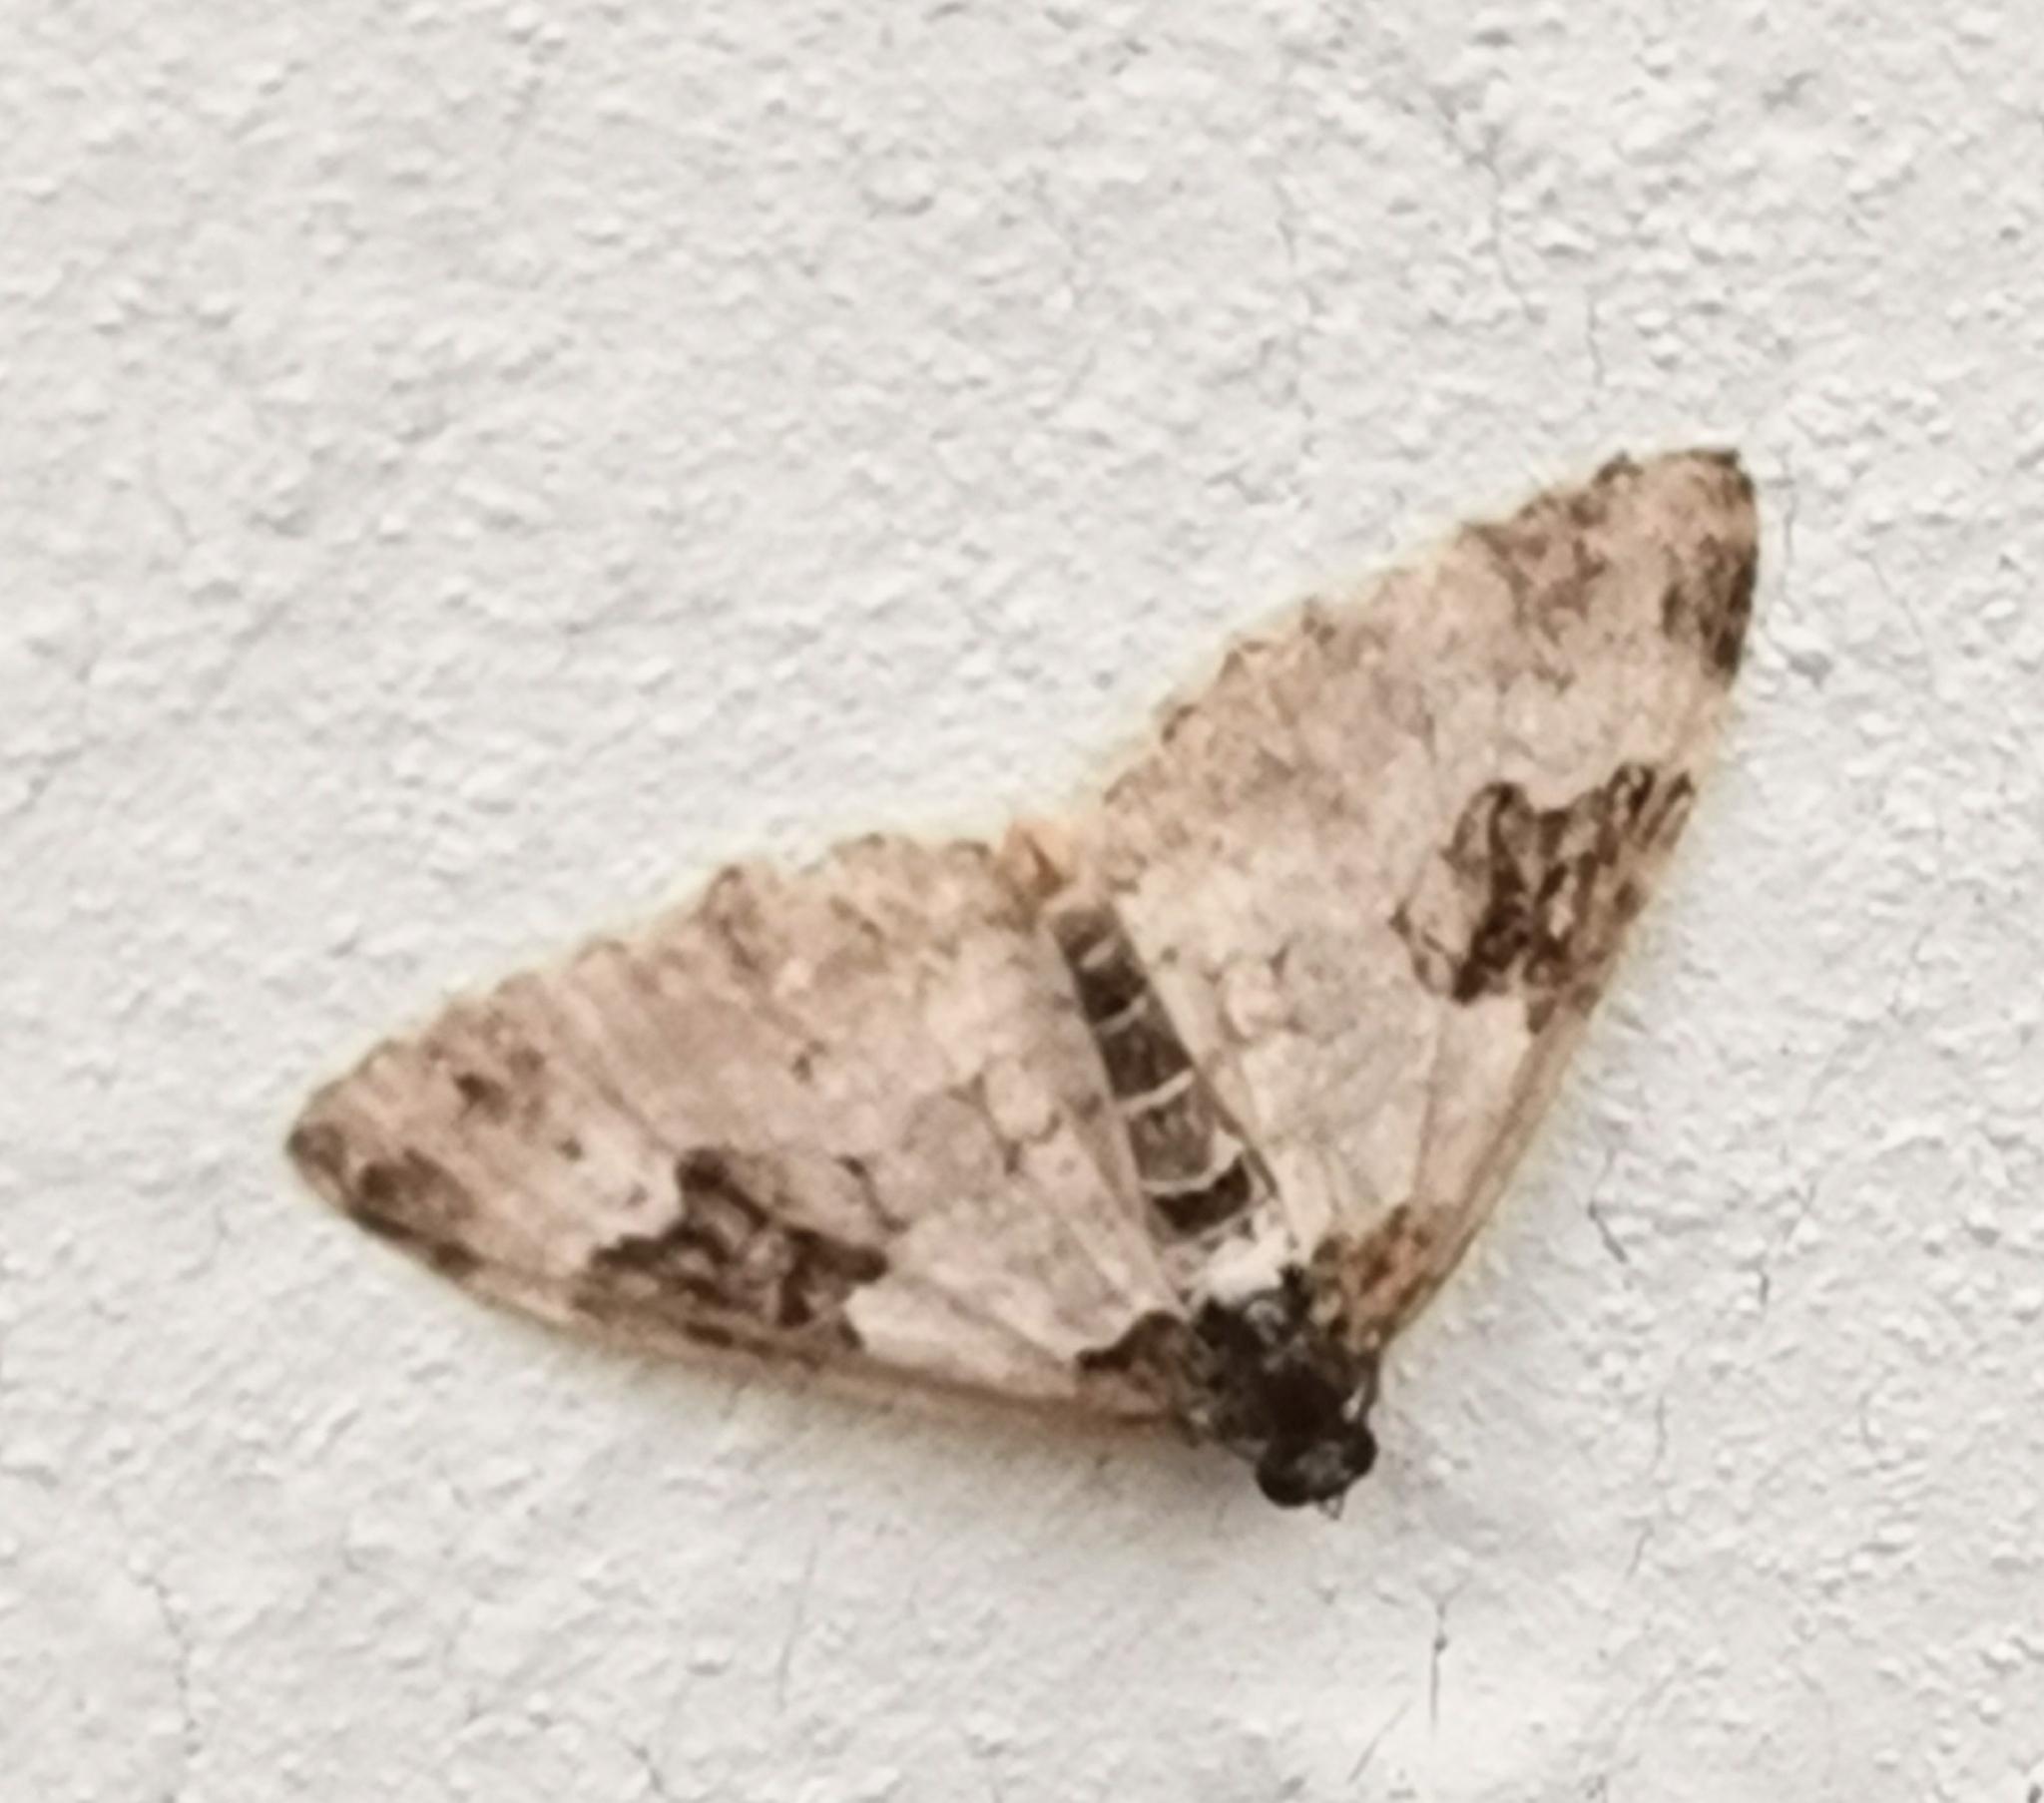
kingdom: Animalia
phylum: Arthropoda
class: Insecta
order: Lepidoptera
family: Geometridae
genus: Xanthorhoe
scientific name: Xanthorhoe fluctuata
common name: Garden carpet
